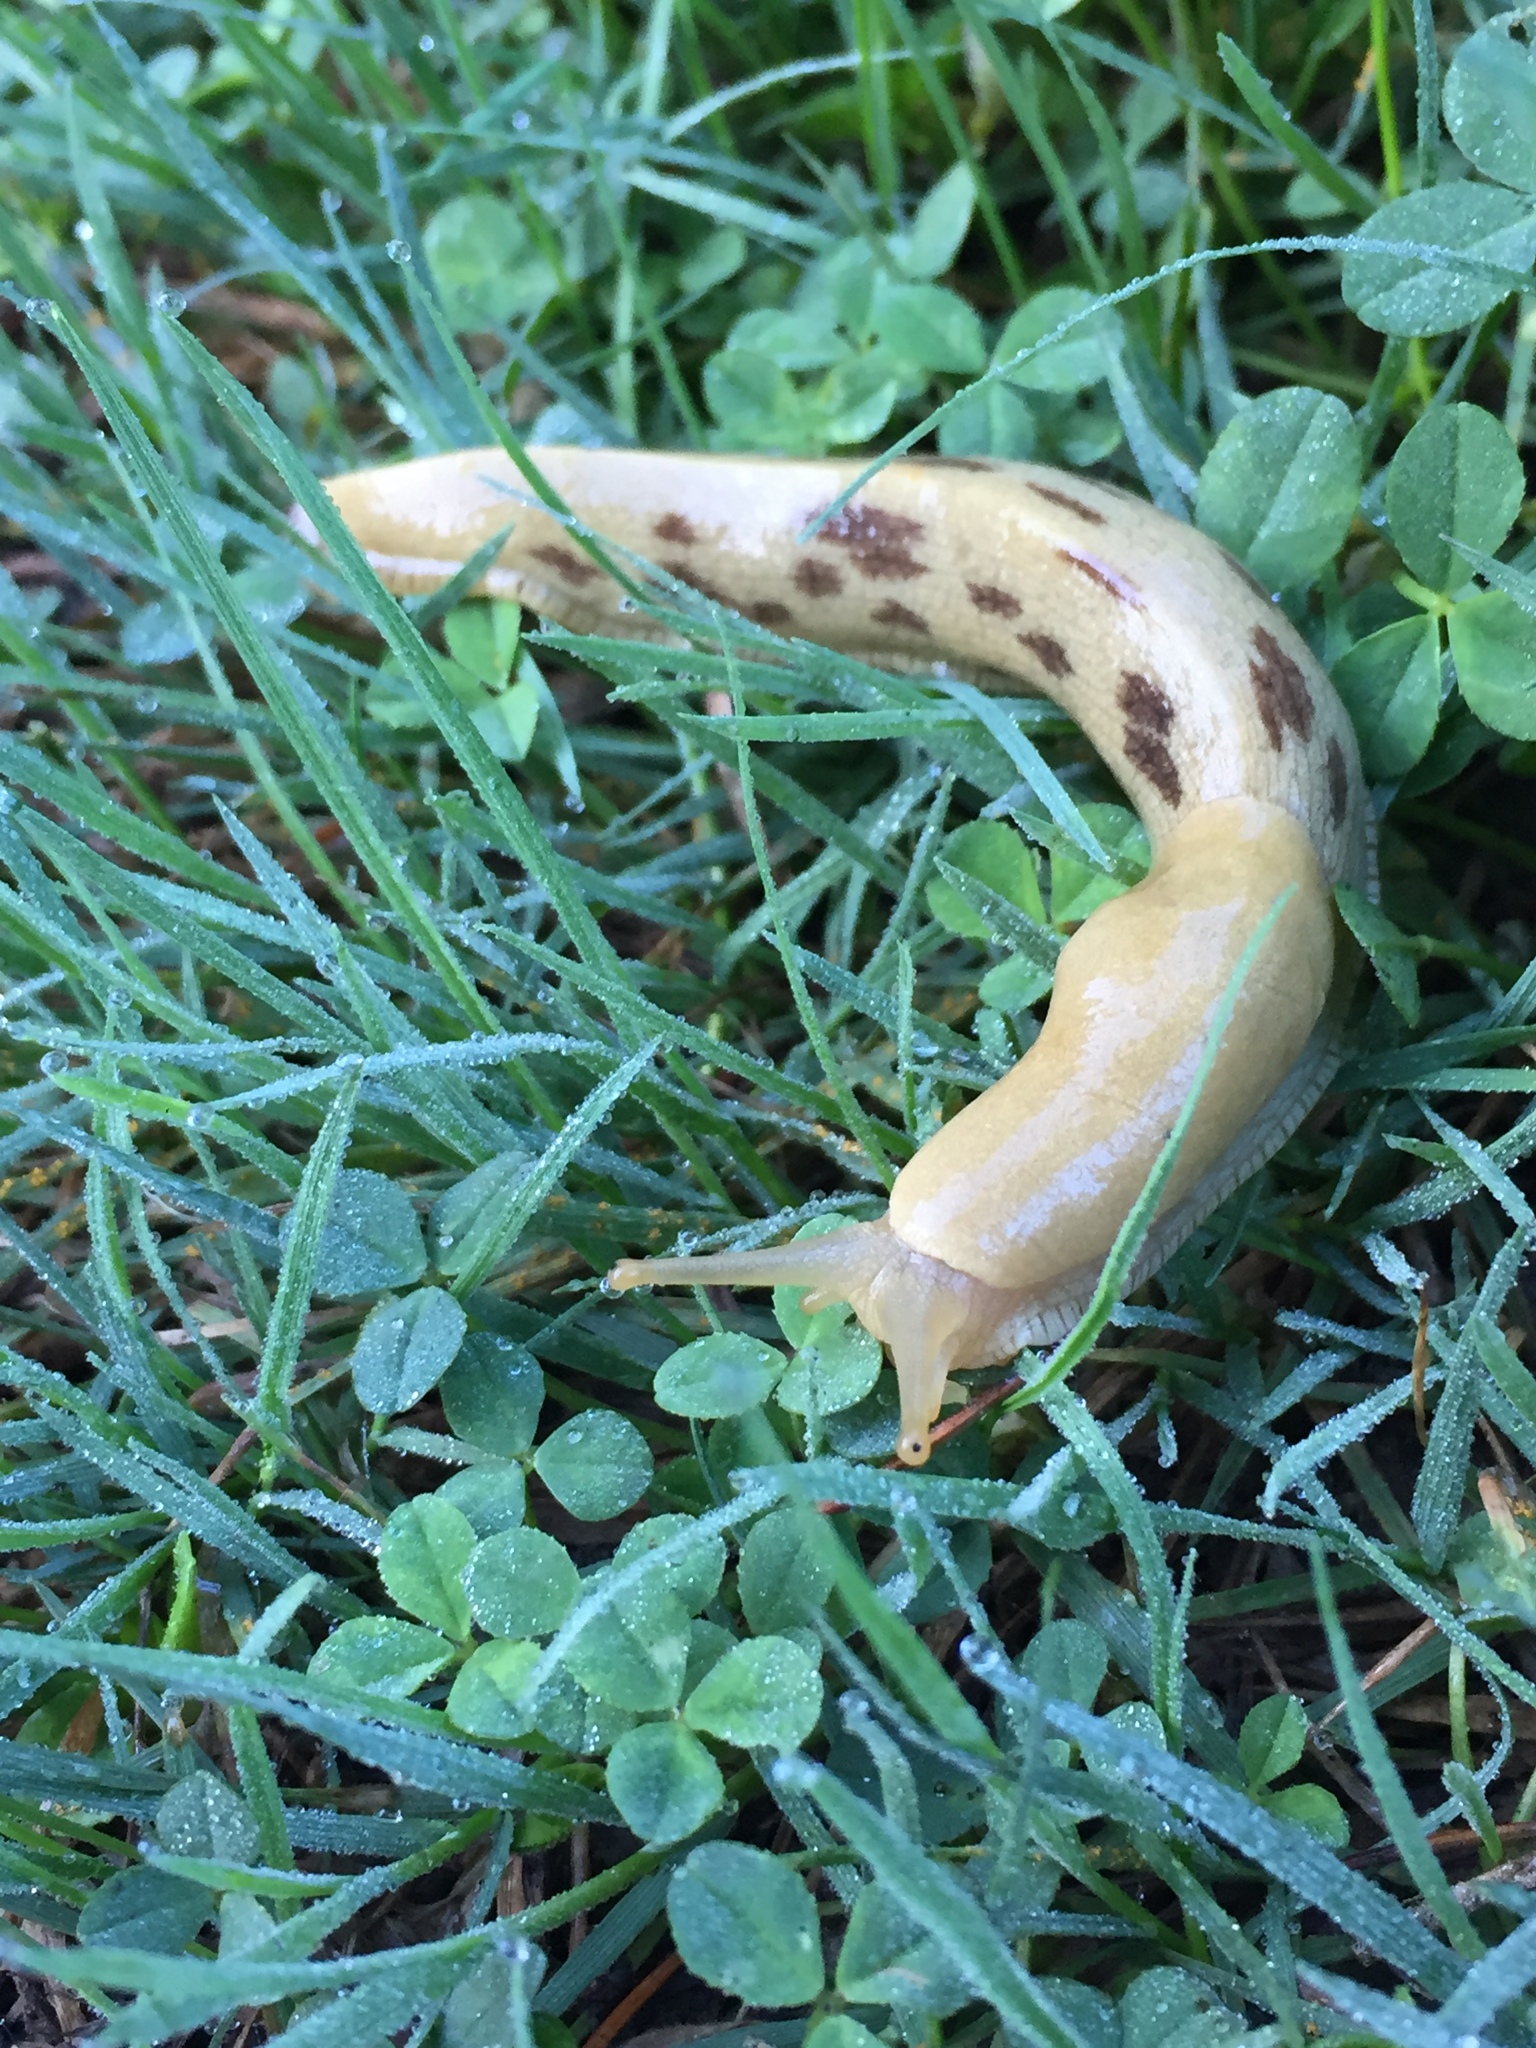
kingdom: Animalia
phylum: Mollusca
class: Gastropoda
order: Stylommatophora
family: Ariolimacidae
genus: Ariolimax
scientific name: Ariolimax columbianus
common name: Pacific banana slug
